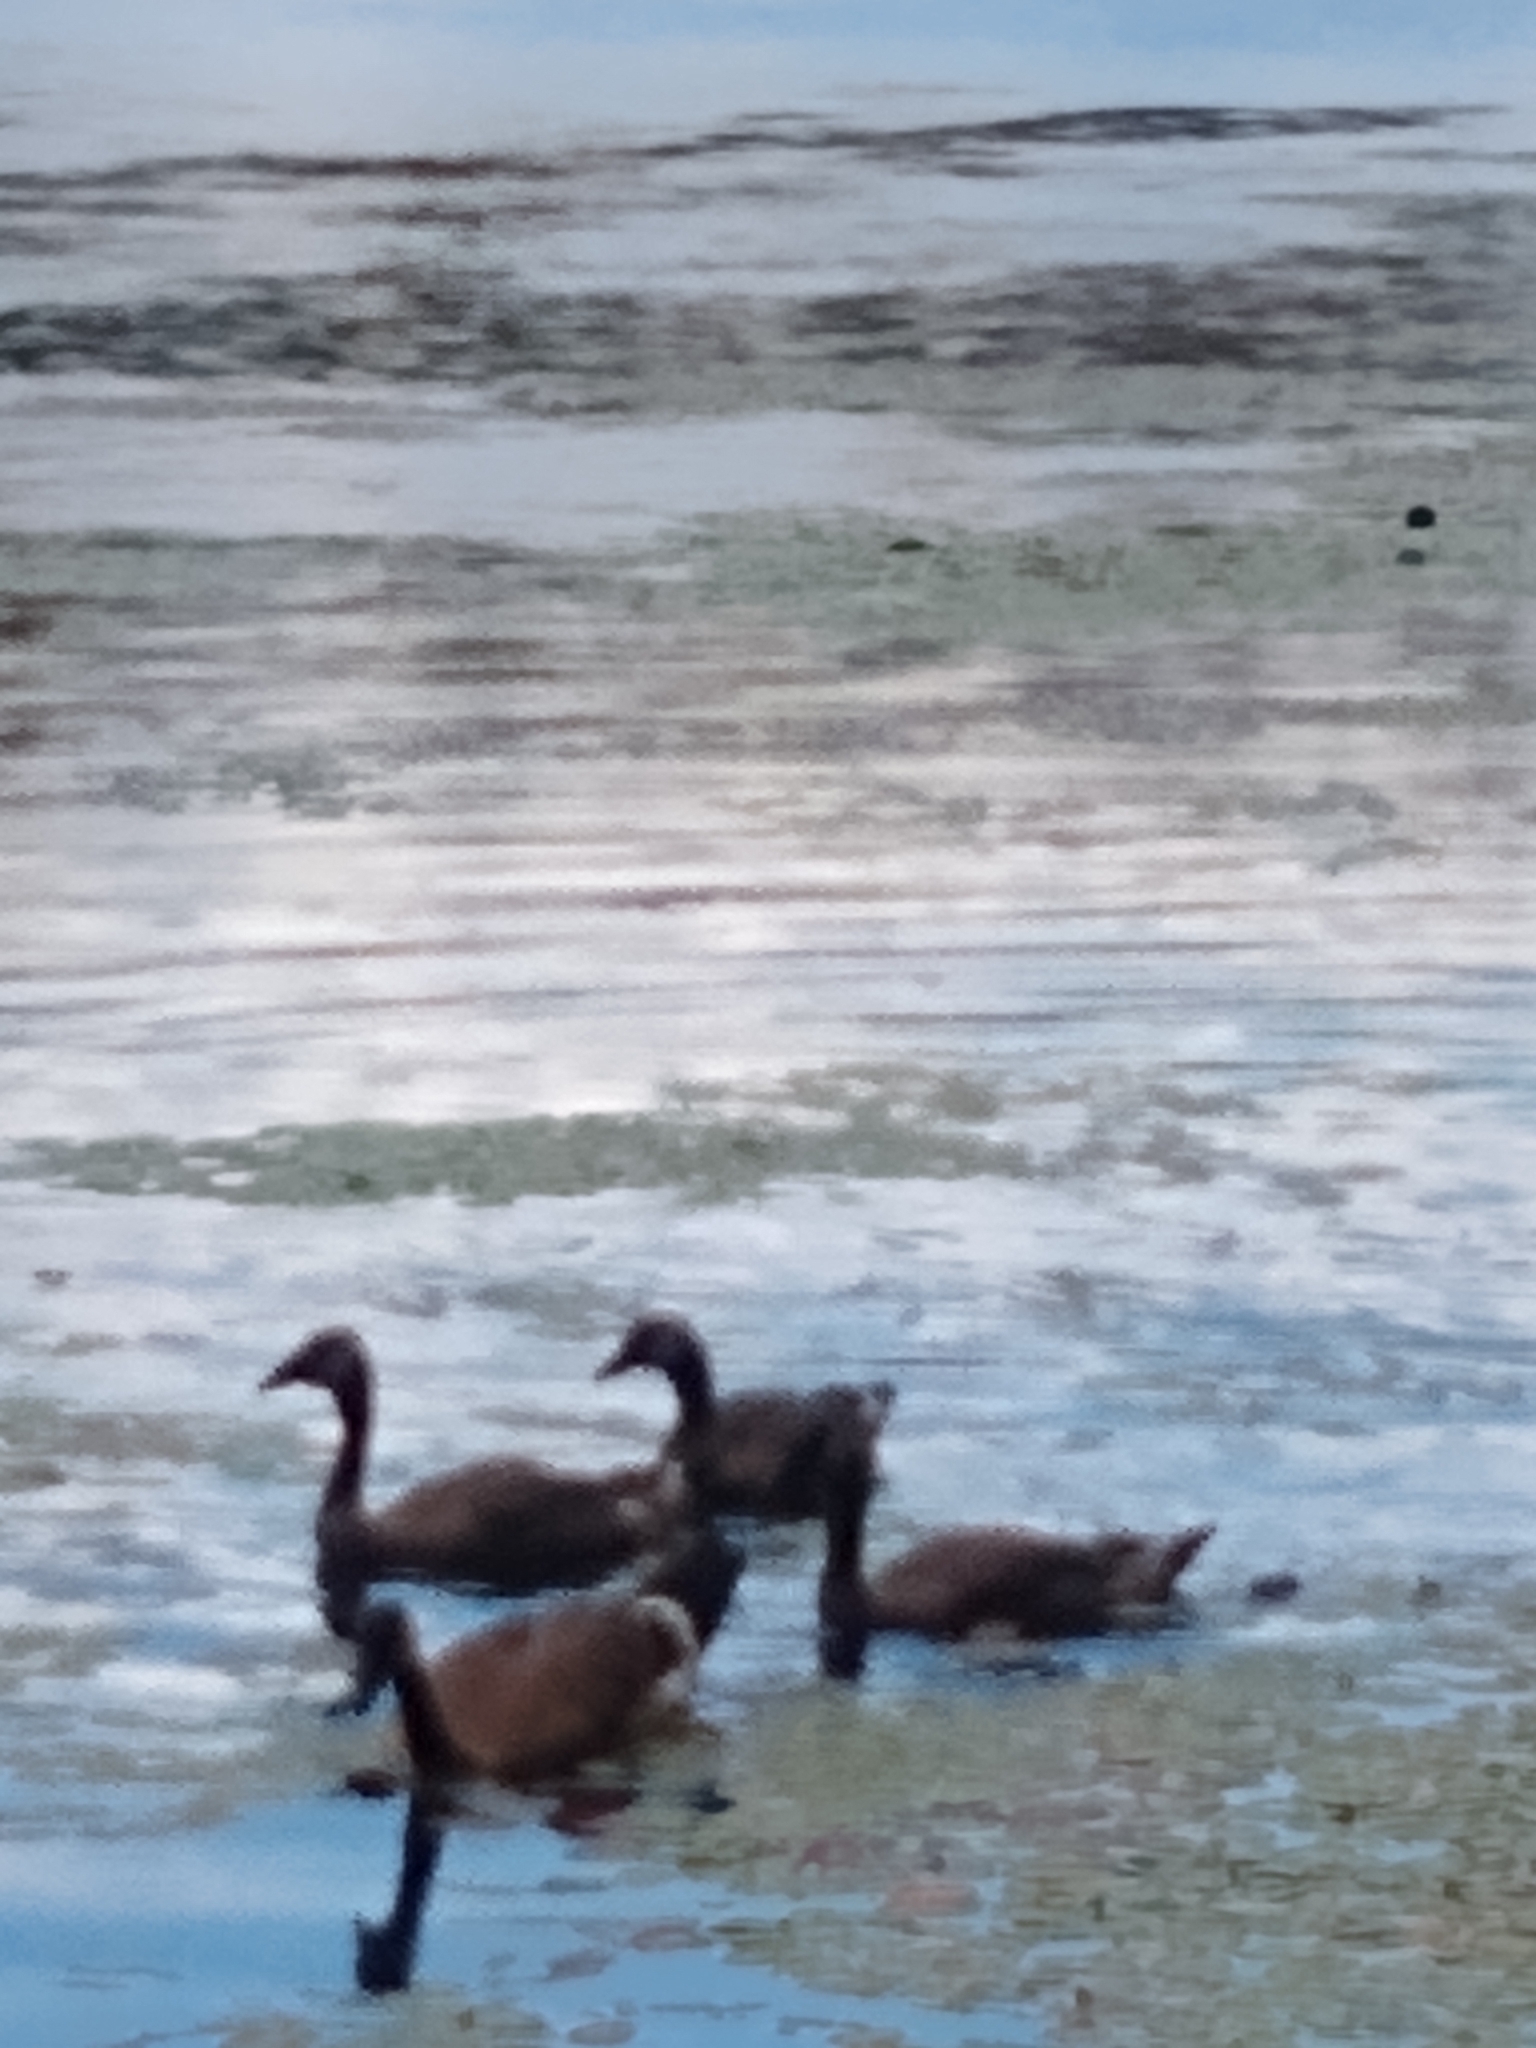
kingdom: Animalia
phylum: Chordata
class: Aves
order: Anseriformes
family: Anatidae
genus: Branta
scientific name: Branta canadensis
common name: Canada goose
